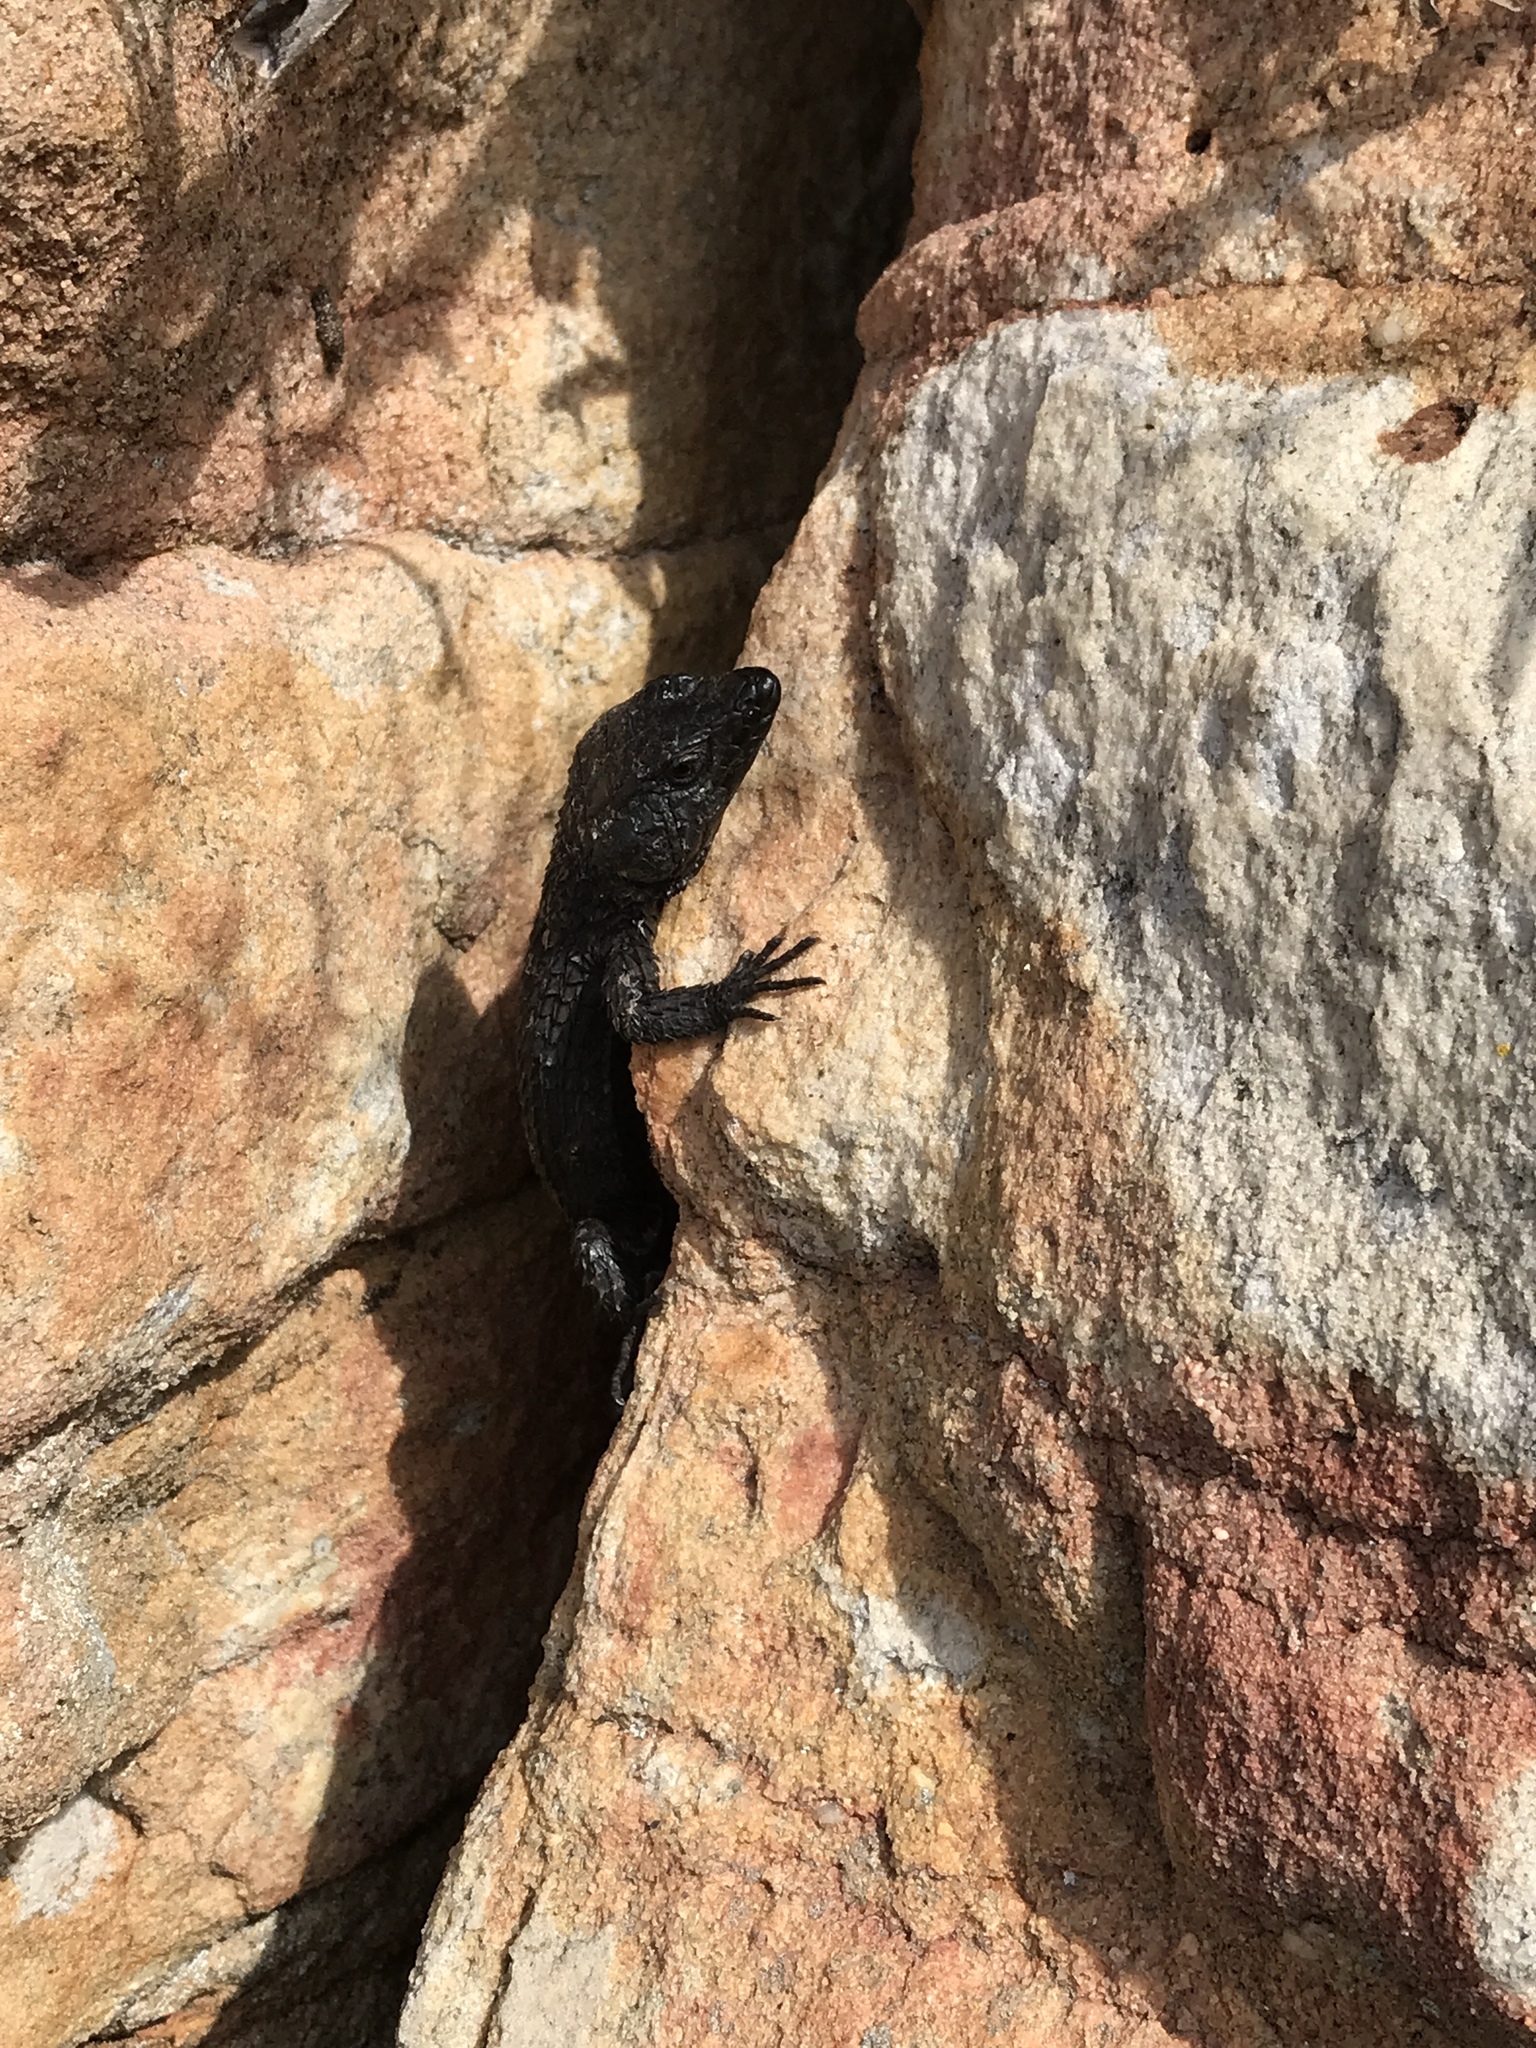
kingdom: Animalia
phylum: Chordata
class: Squamata
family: Cordylidae
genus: Cordylus
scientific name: Cordylus niger
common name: Black girdled lizard
